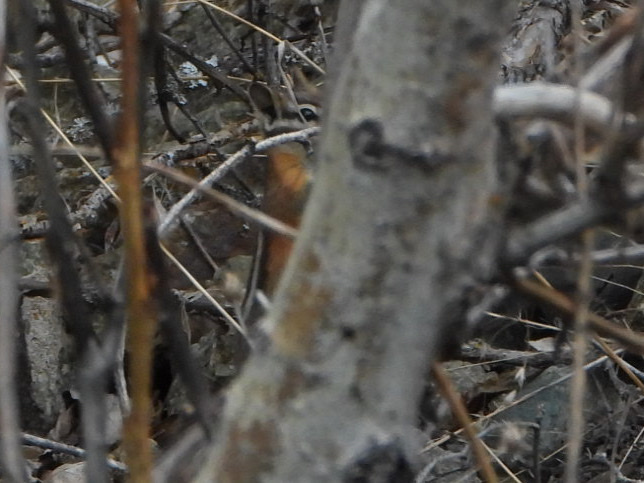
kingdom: Animalia
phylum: Chordata
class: Mammalia
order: Rodentia
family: Sciuridae
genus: Tamias
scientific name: Tamias amoenus
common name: Yellow-pine chipmunk
